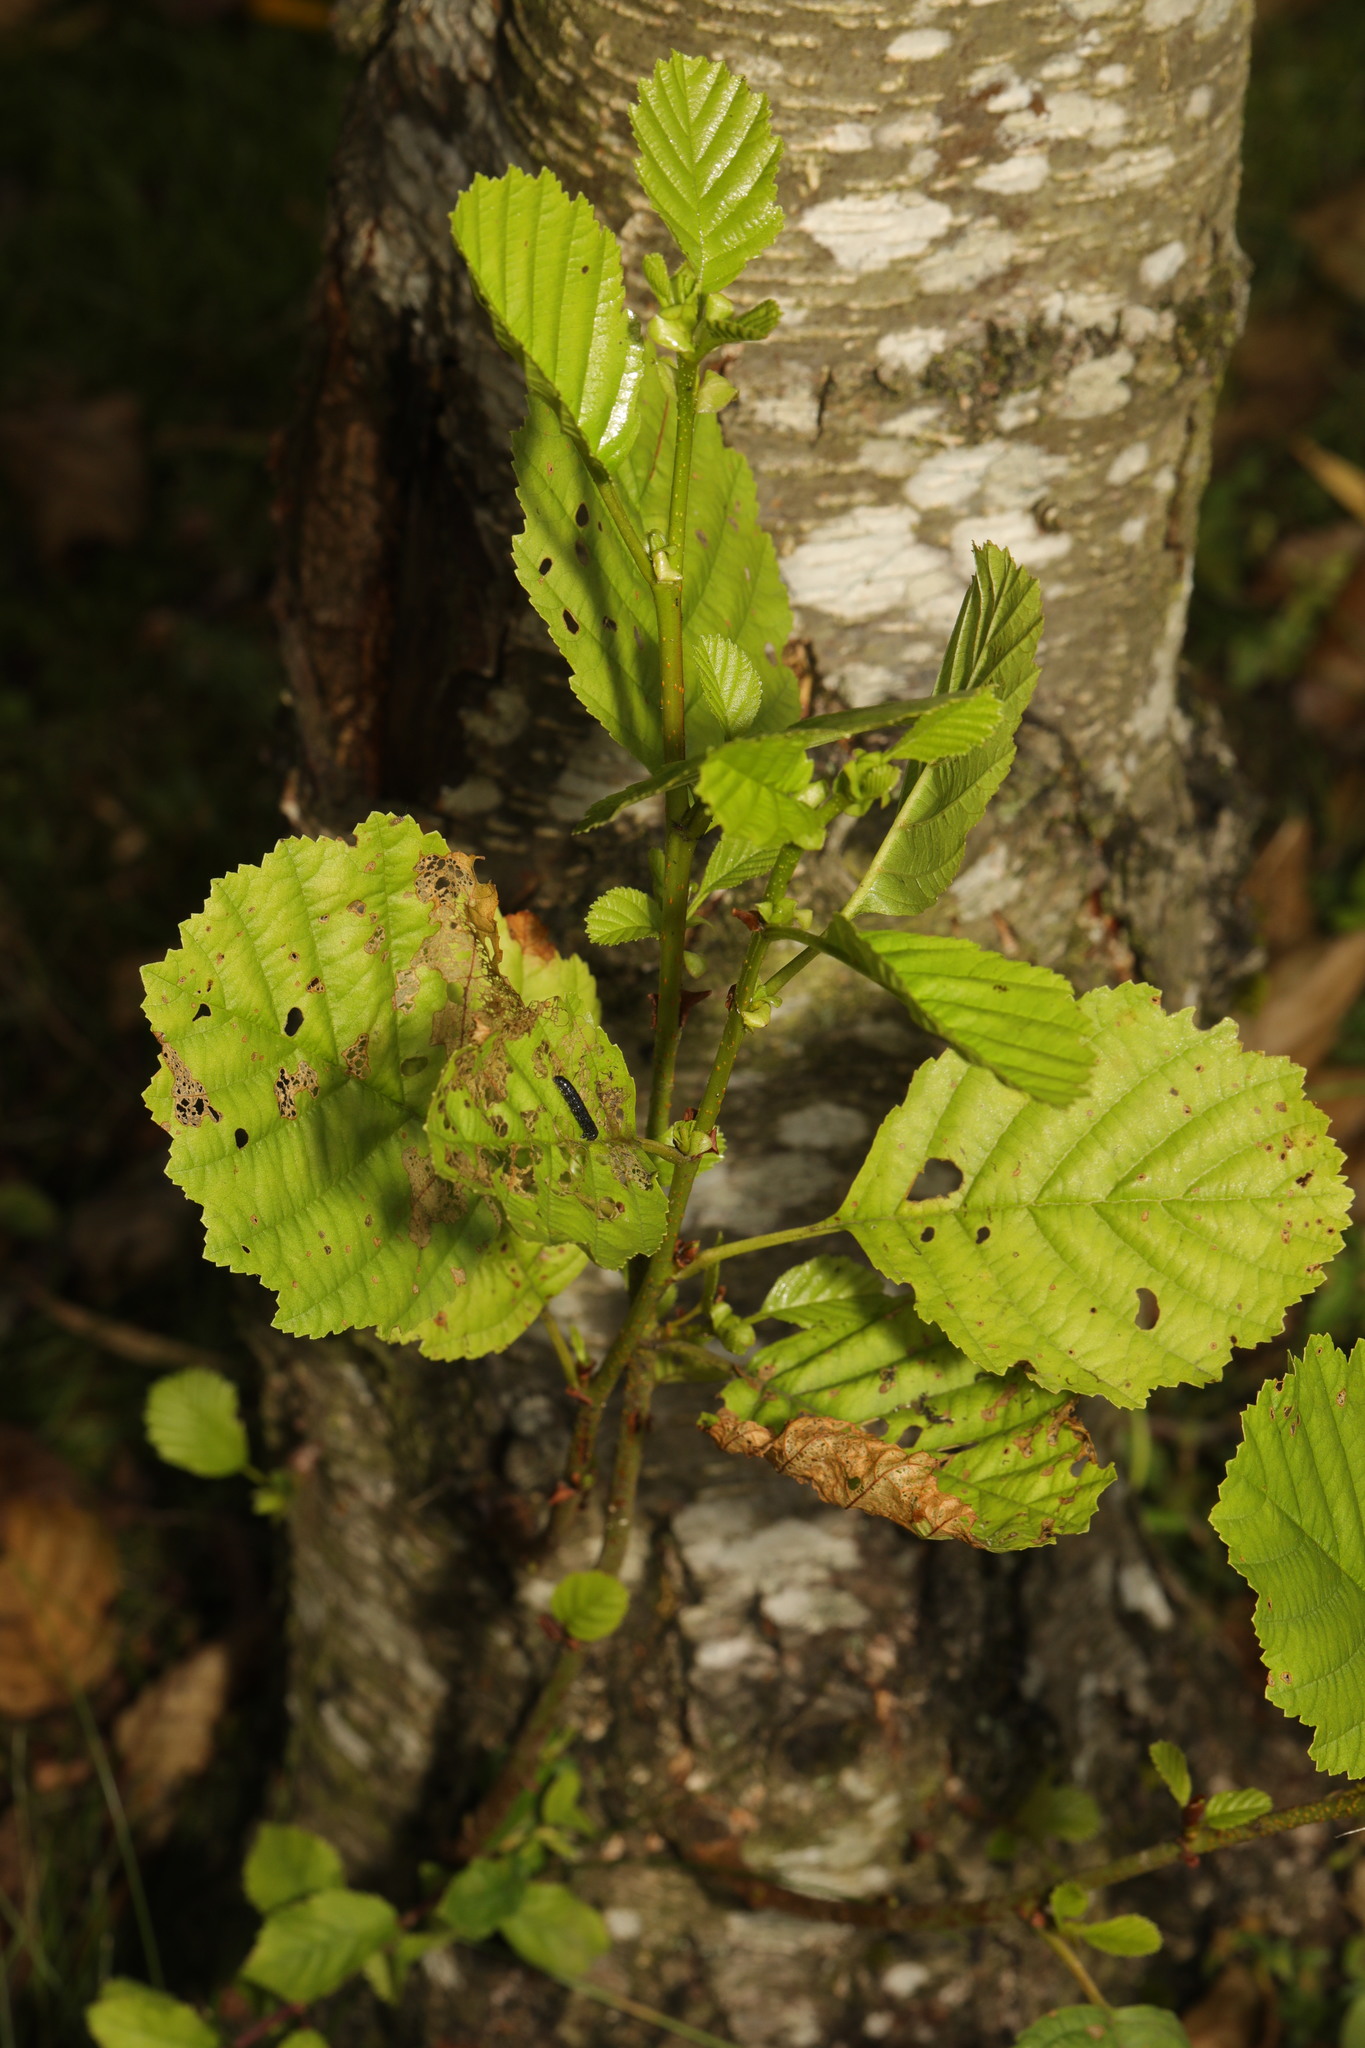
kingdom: Plantae
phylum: Tracheophyta
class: Magnoliopsida
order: Fagales
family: Betulaceae
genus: Alnus
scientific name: Alnus glutinosa
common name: Black alder
